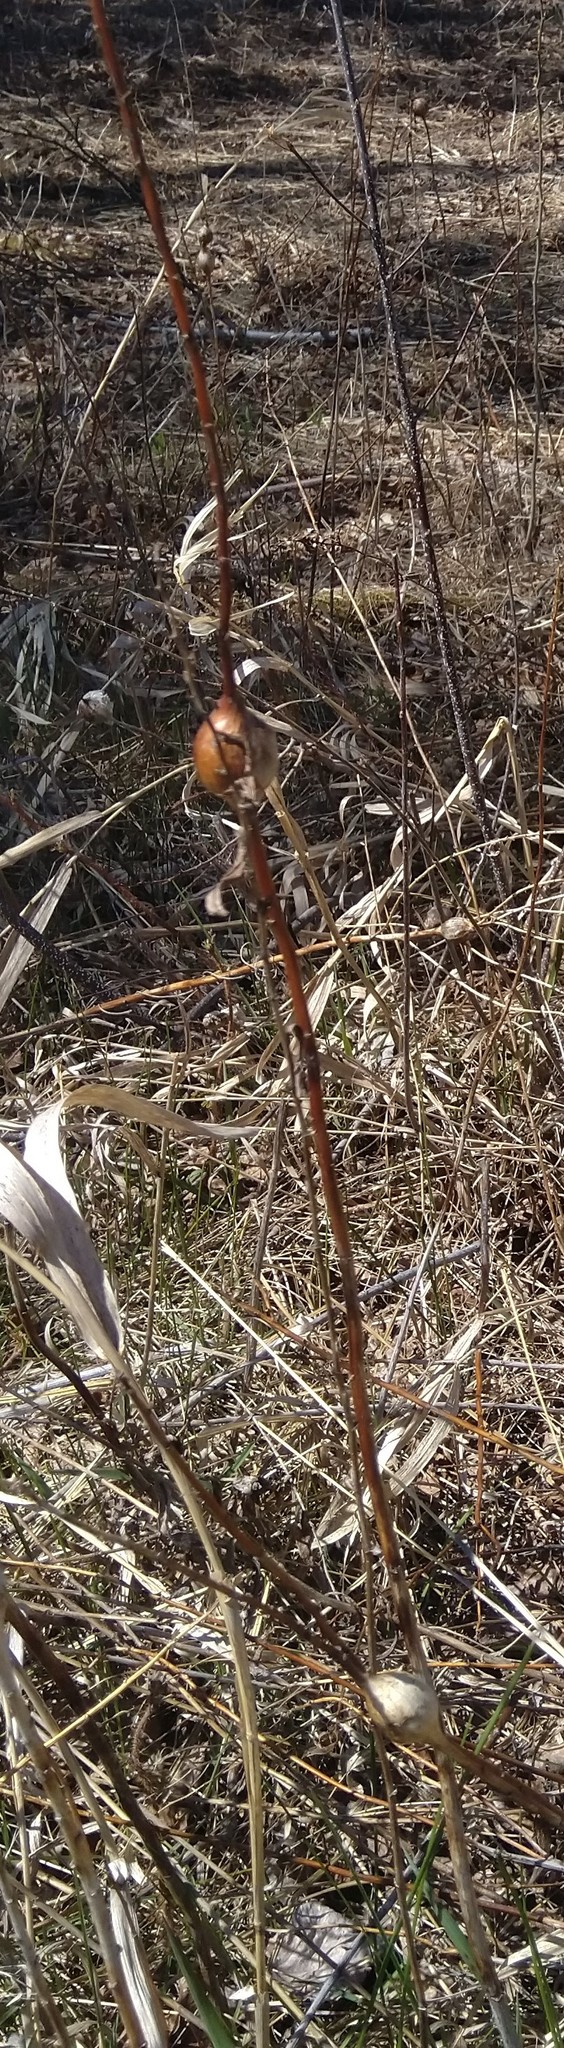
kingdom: Animalia
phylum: Arthropoda
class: Insecta
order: Diptera
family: Tephritidae
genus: Eurosta
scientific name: Eurosta solidaginis
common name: Goldenrod gall fly
